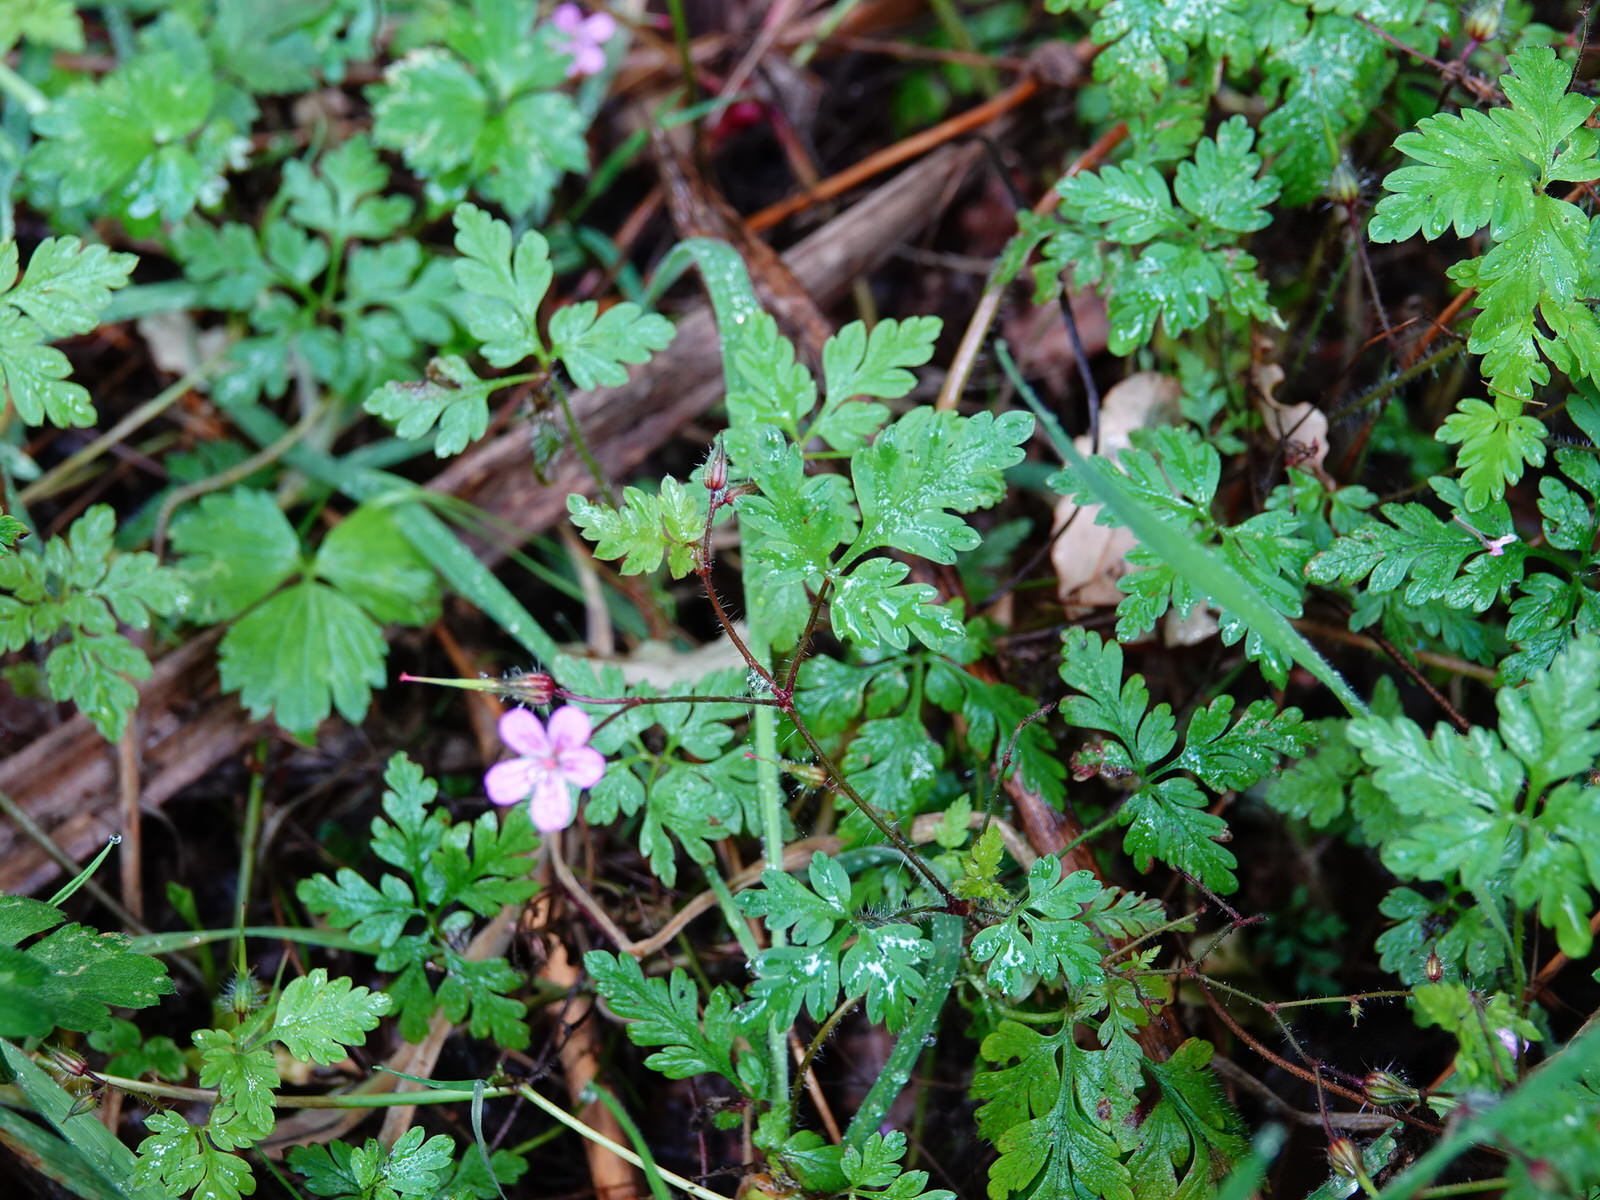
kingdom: Plantae
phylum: Tracheophyta
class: Magnoliopsida
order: Geraniales
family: Geraniaceae
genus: Geranium
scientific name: Geranium robertianum
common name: Herb-robert
